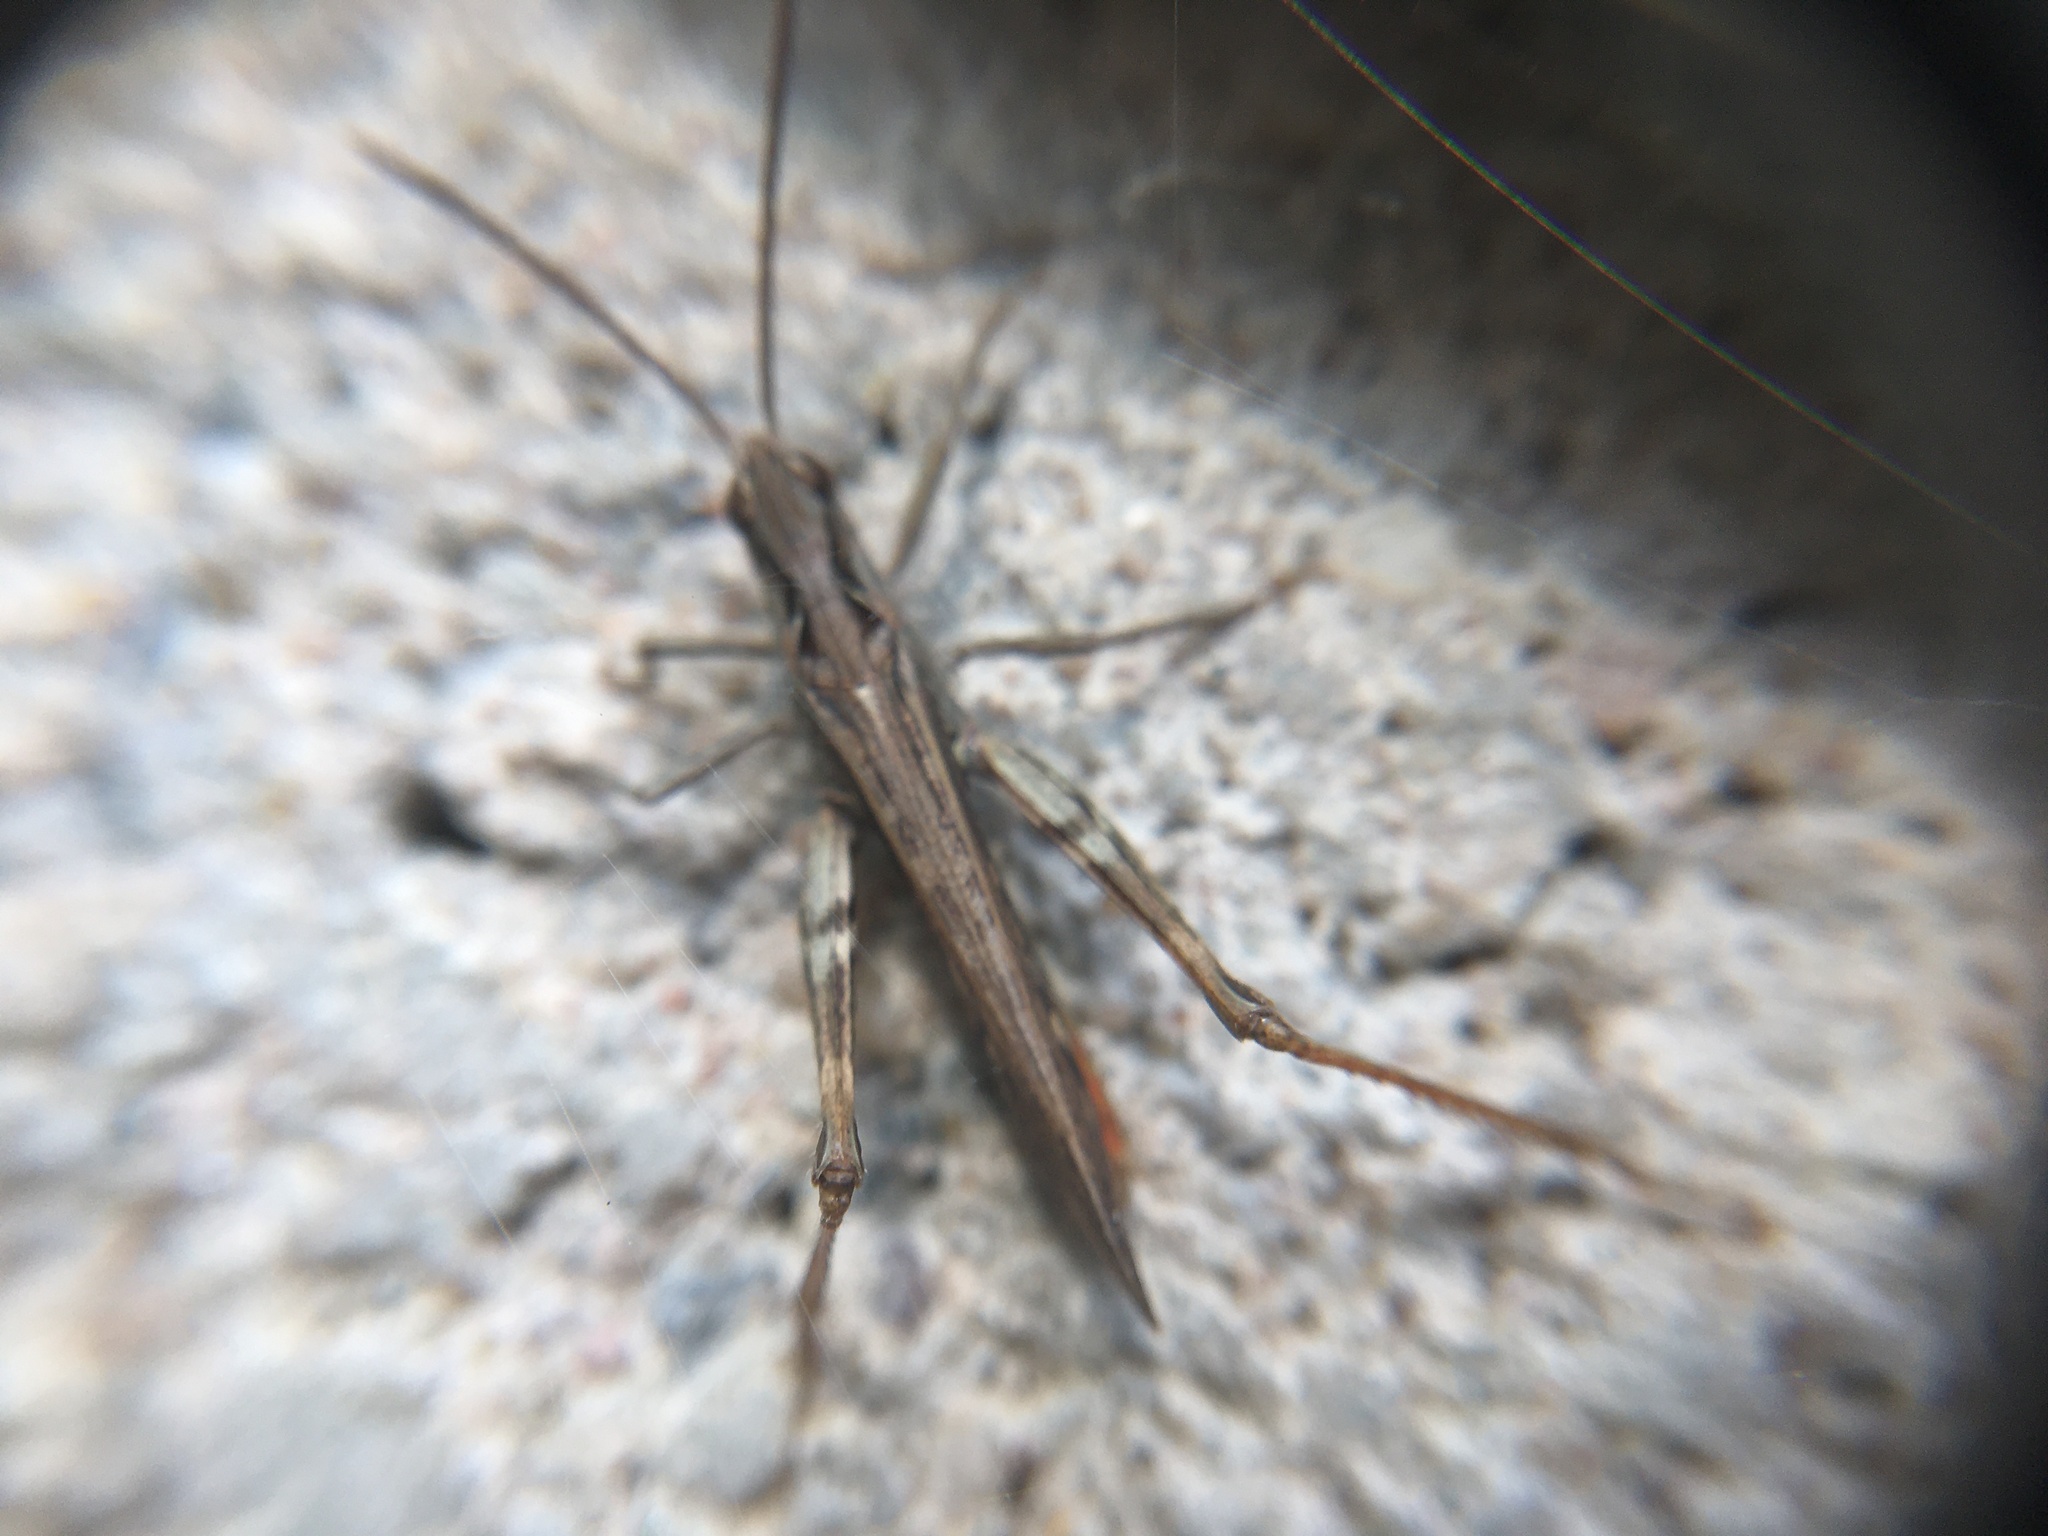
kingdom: Animalia
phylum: Arthropoda
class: Insecta
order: Orthoptera
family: Acrididae
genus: Chorthippus
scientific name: Chorthippus brunneus
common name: Field grasshopper
